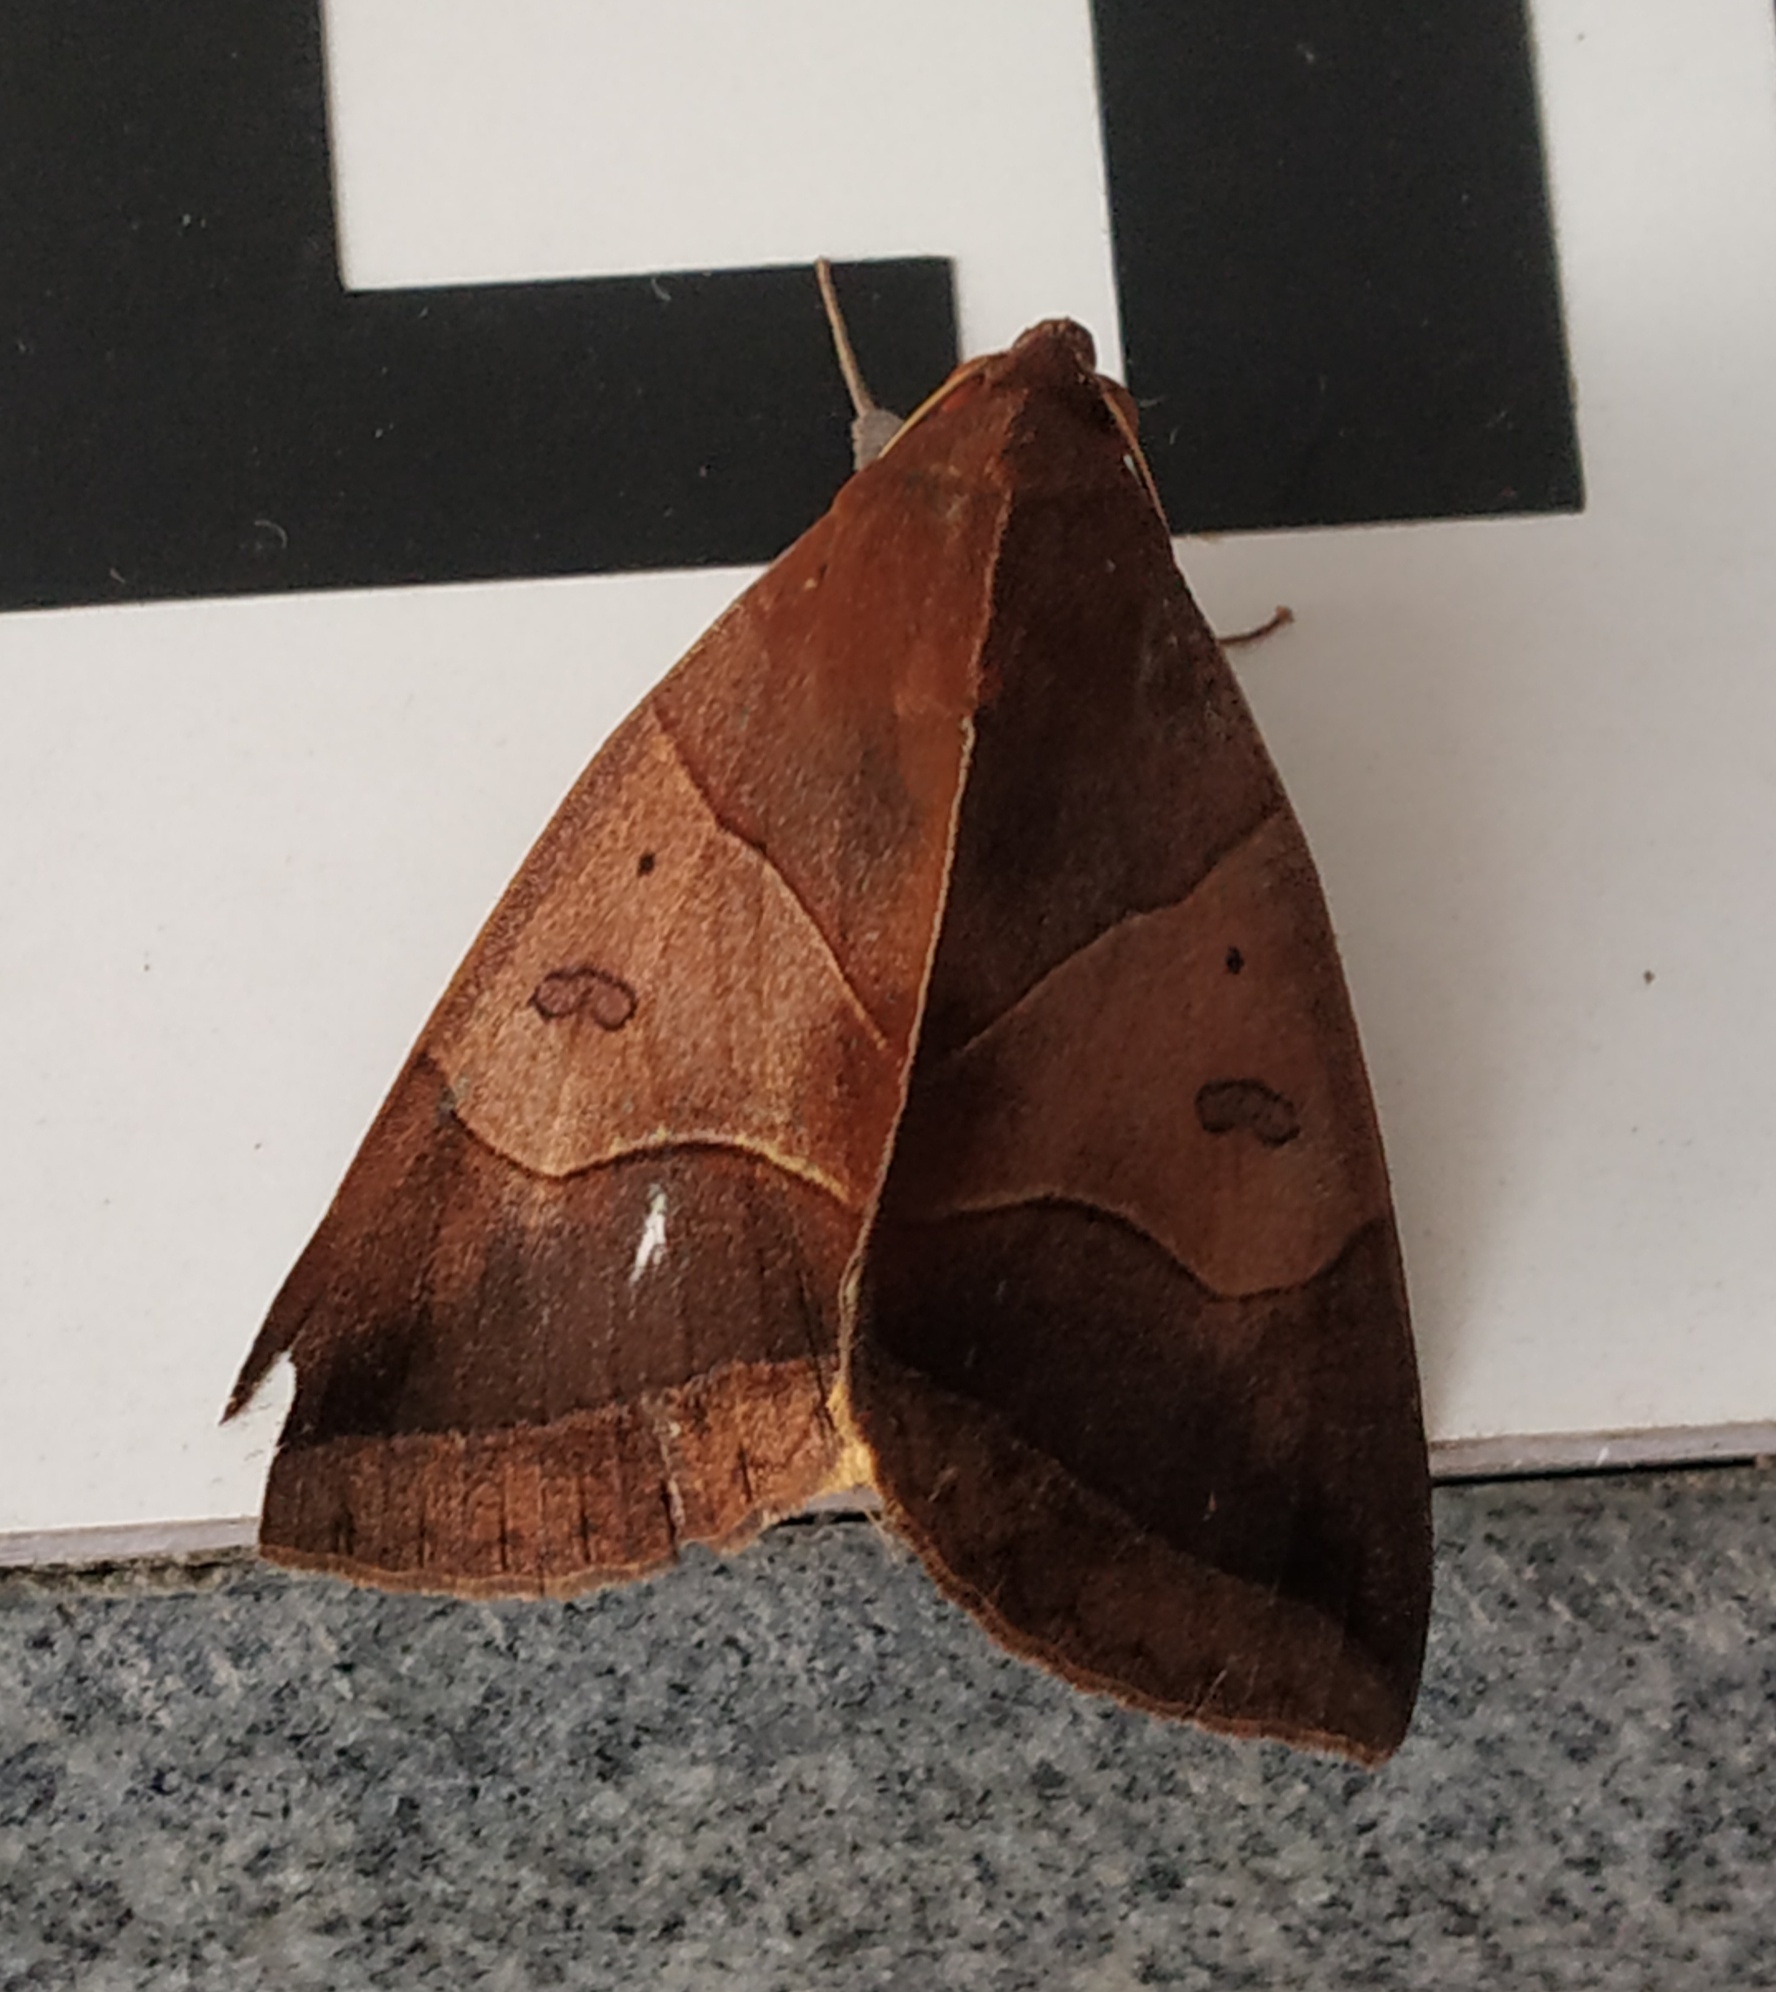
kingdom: Animalia
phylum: Arthropoda
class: Insecta
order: Lepidoptera
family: Erebidae
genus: Artena
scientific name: Artena submira
